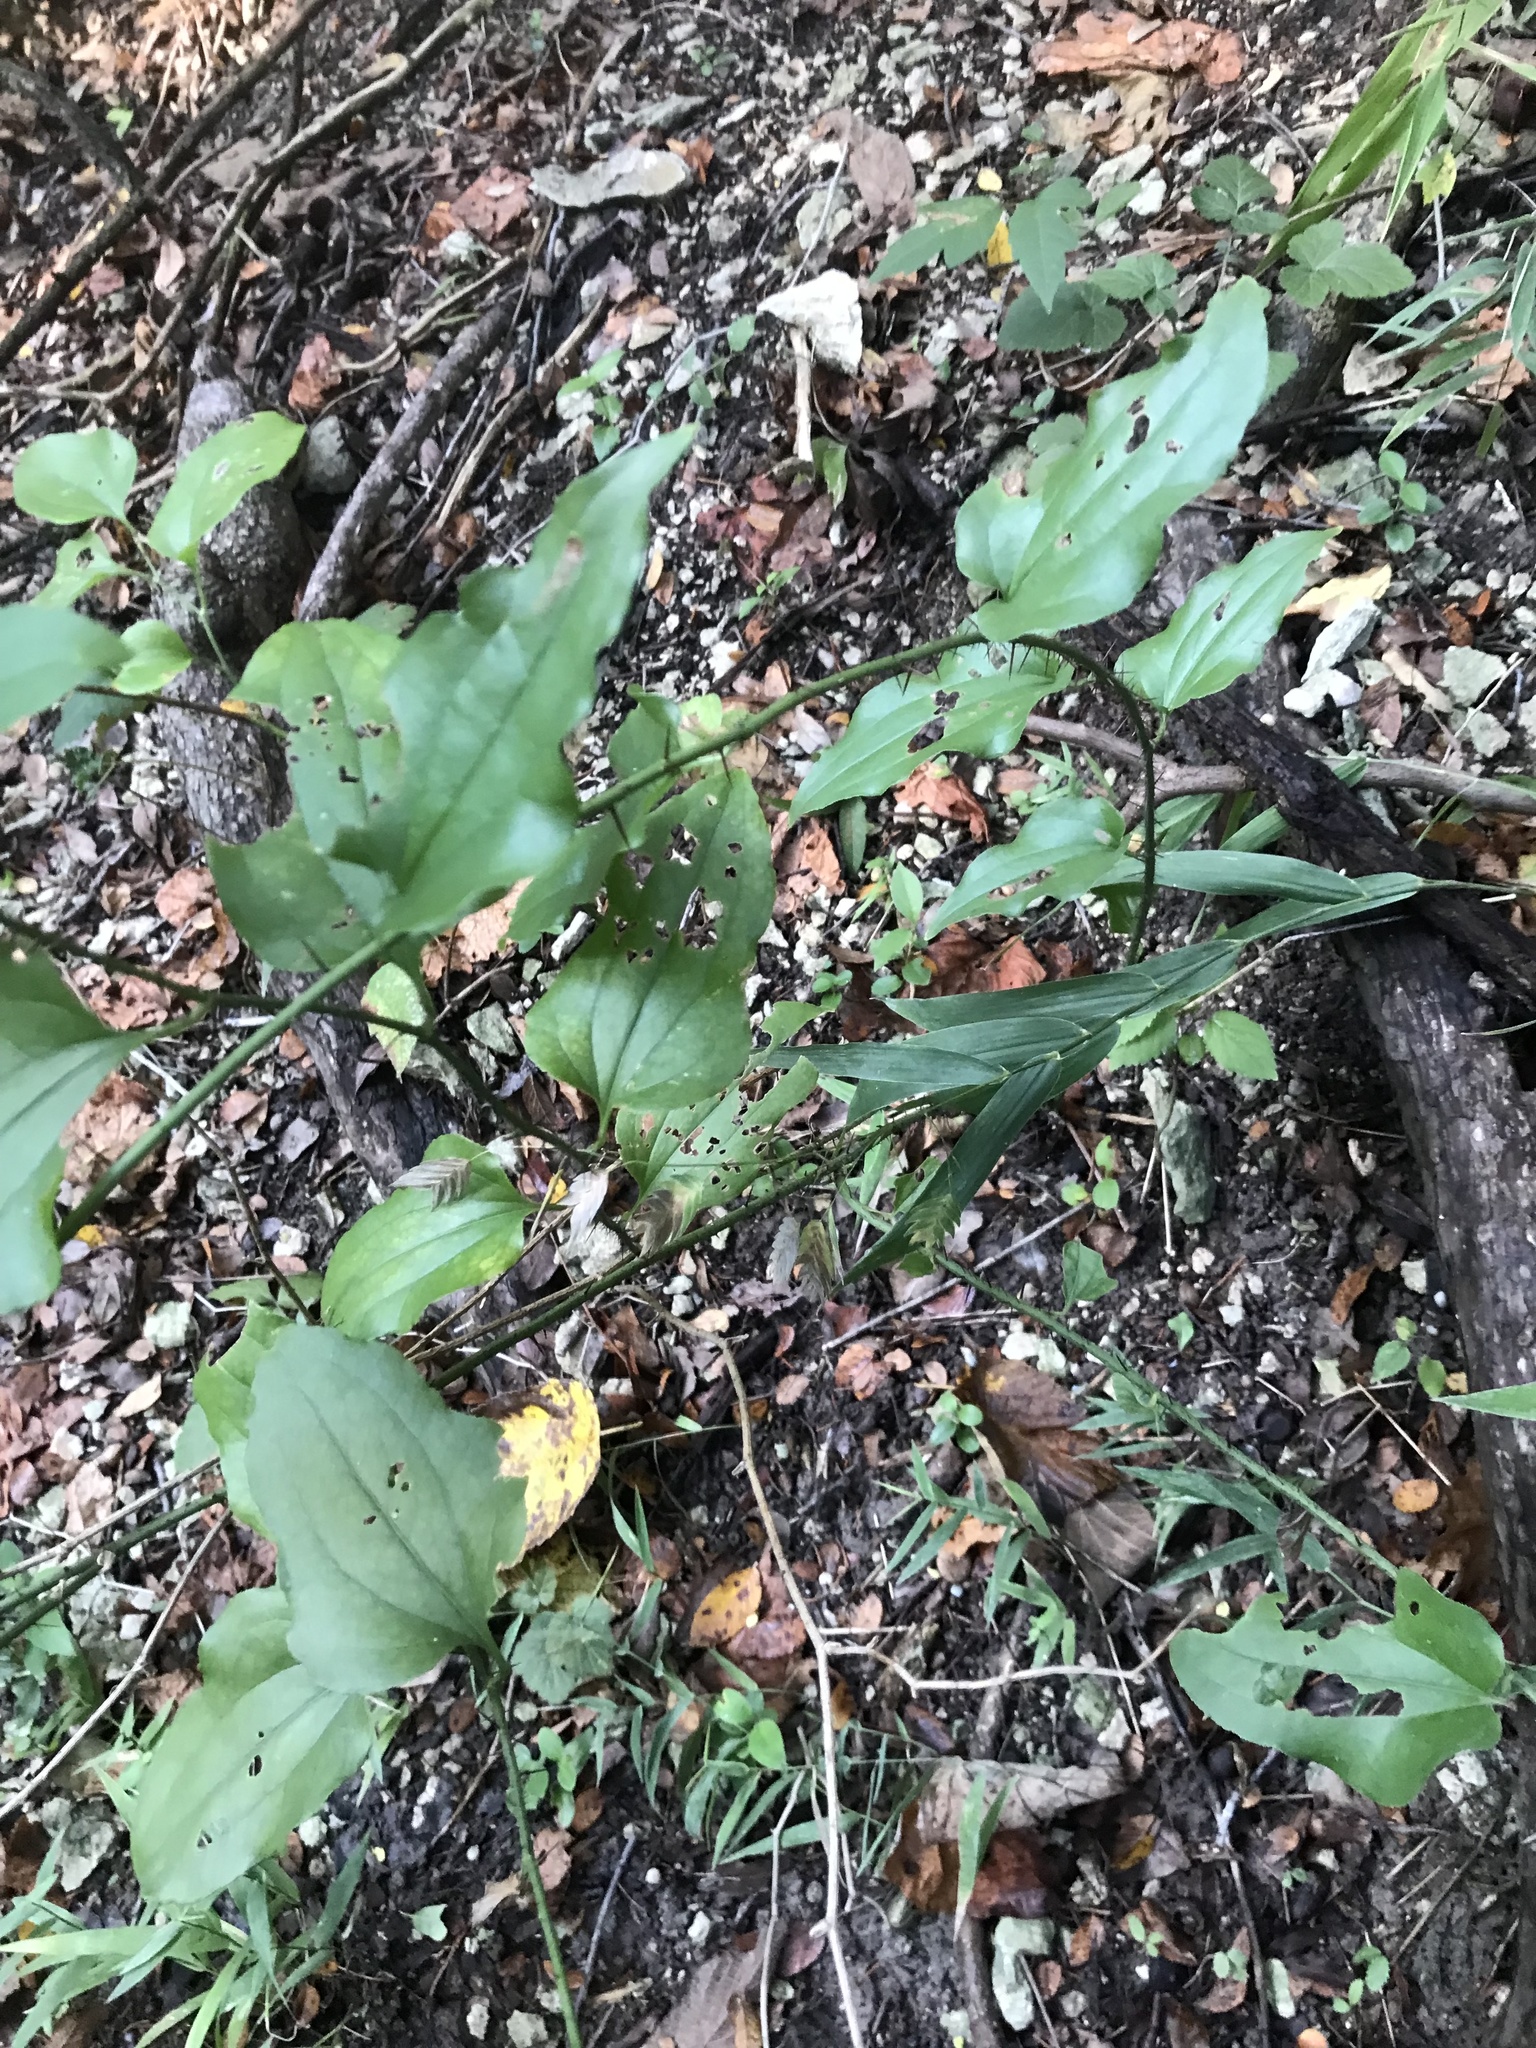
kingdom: Plantae
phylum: Tracheophyta
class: Liliopsida
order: Liliales
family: Smilacaceae
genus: Smilax
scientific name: Smilax tamnoides
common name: Hellfetter
